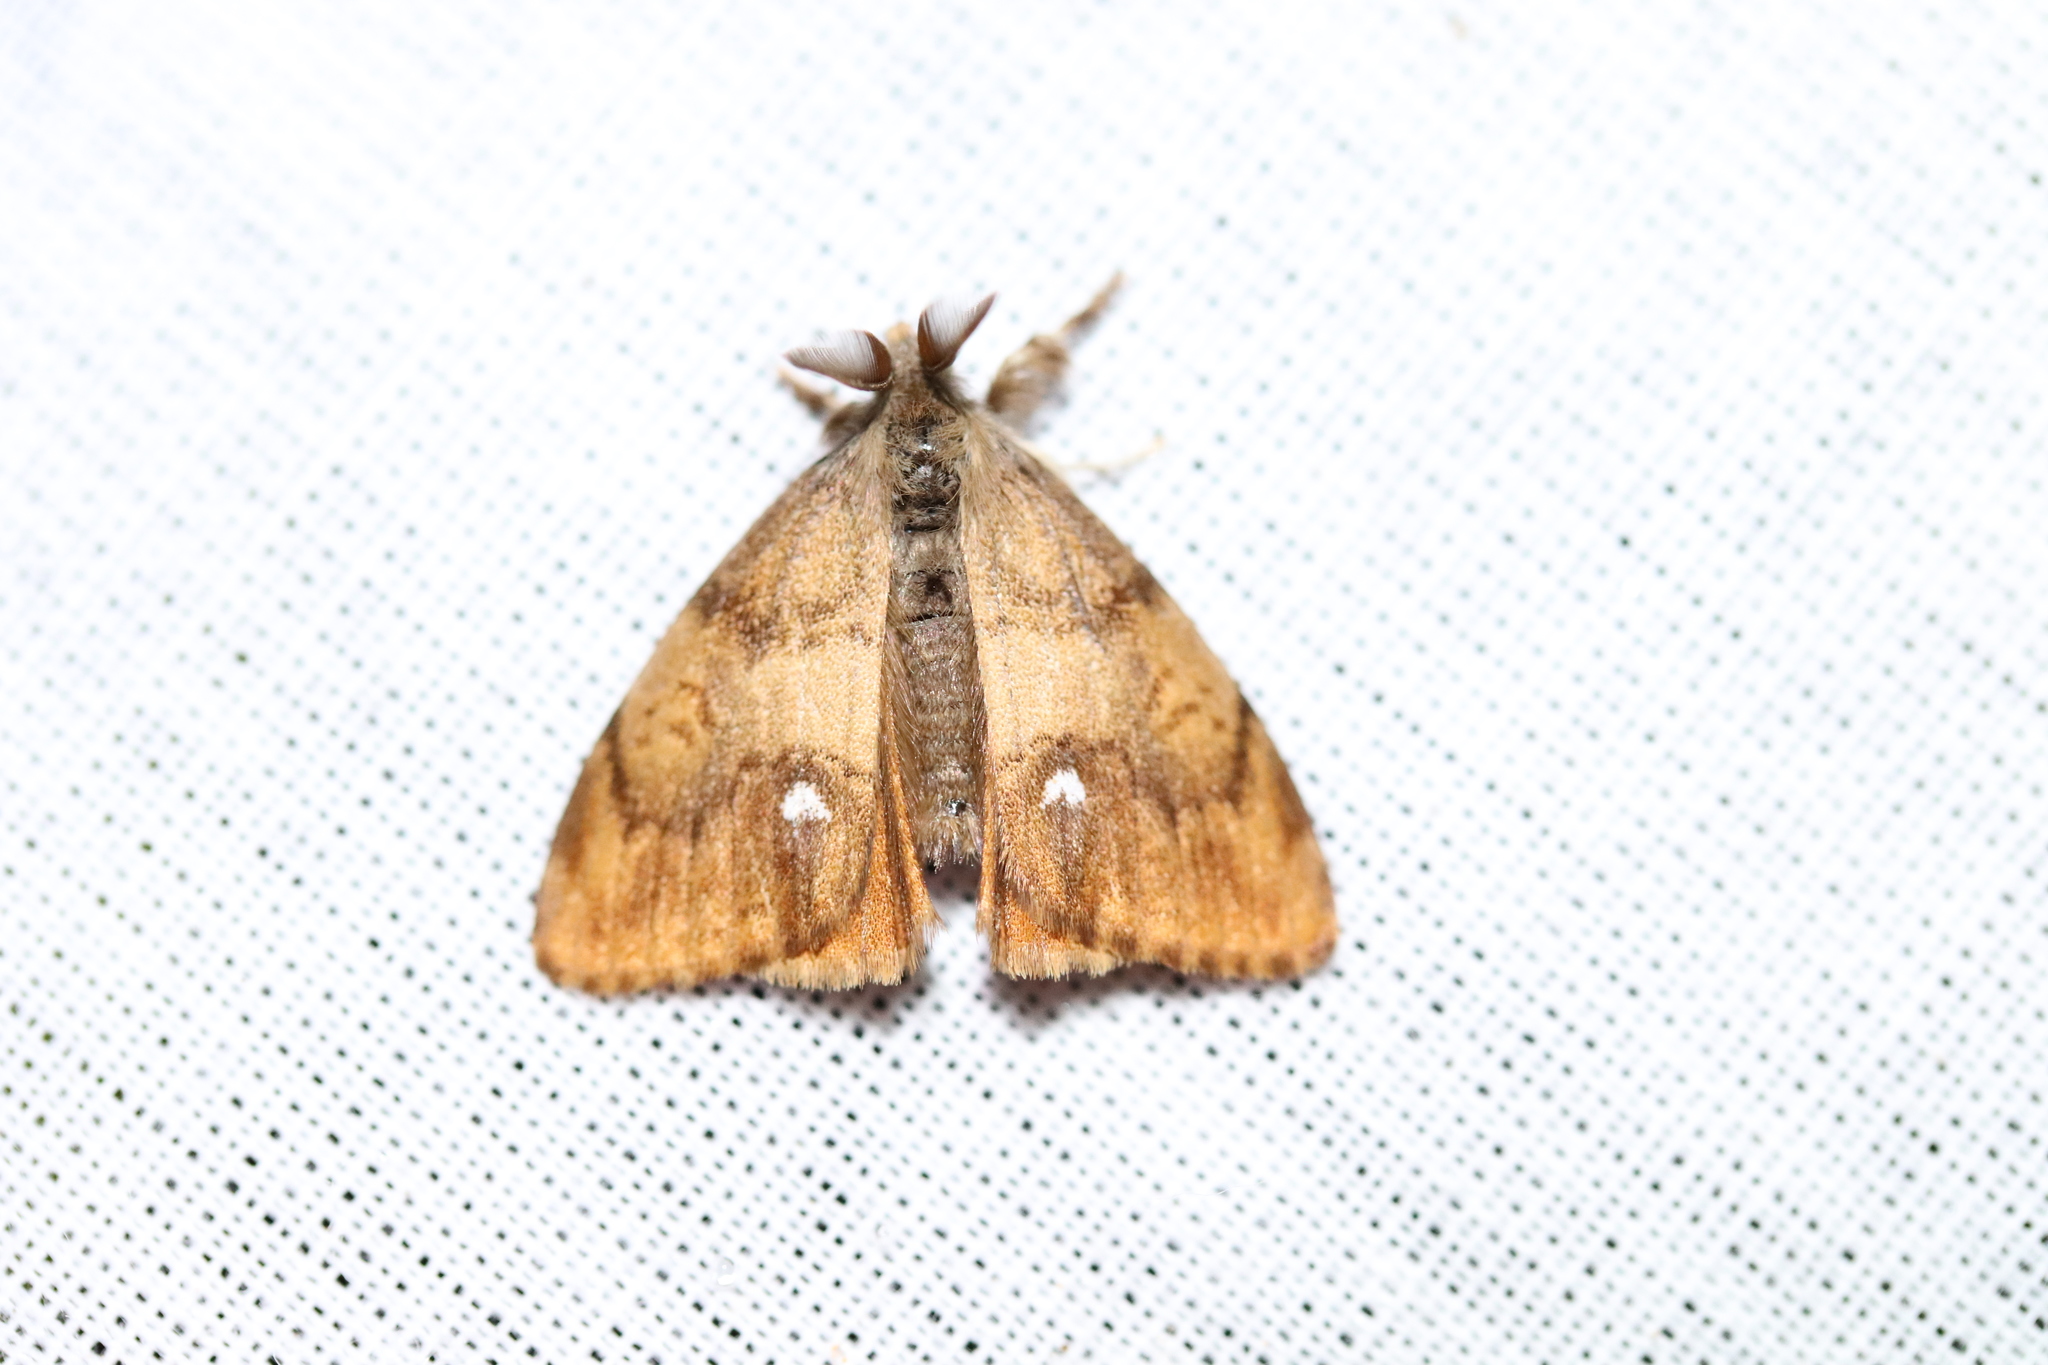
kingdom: Animalia
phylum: Arthropoda
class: Insecta
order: Lepidoptera
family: Erebidae
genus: Orgyia
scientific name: Orgyia antiqua
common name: Vapourer
